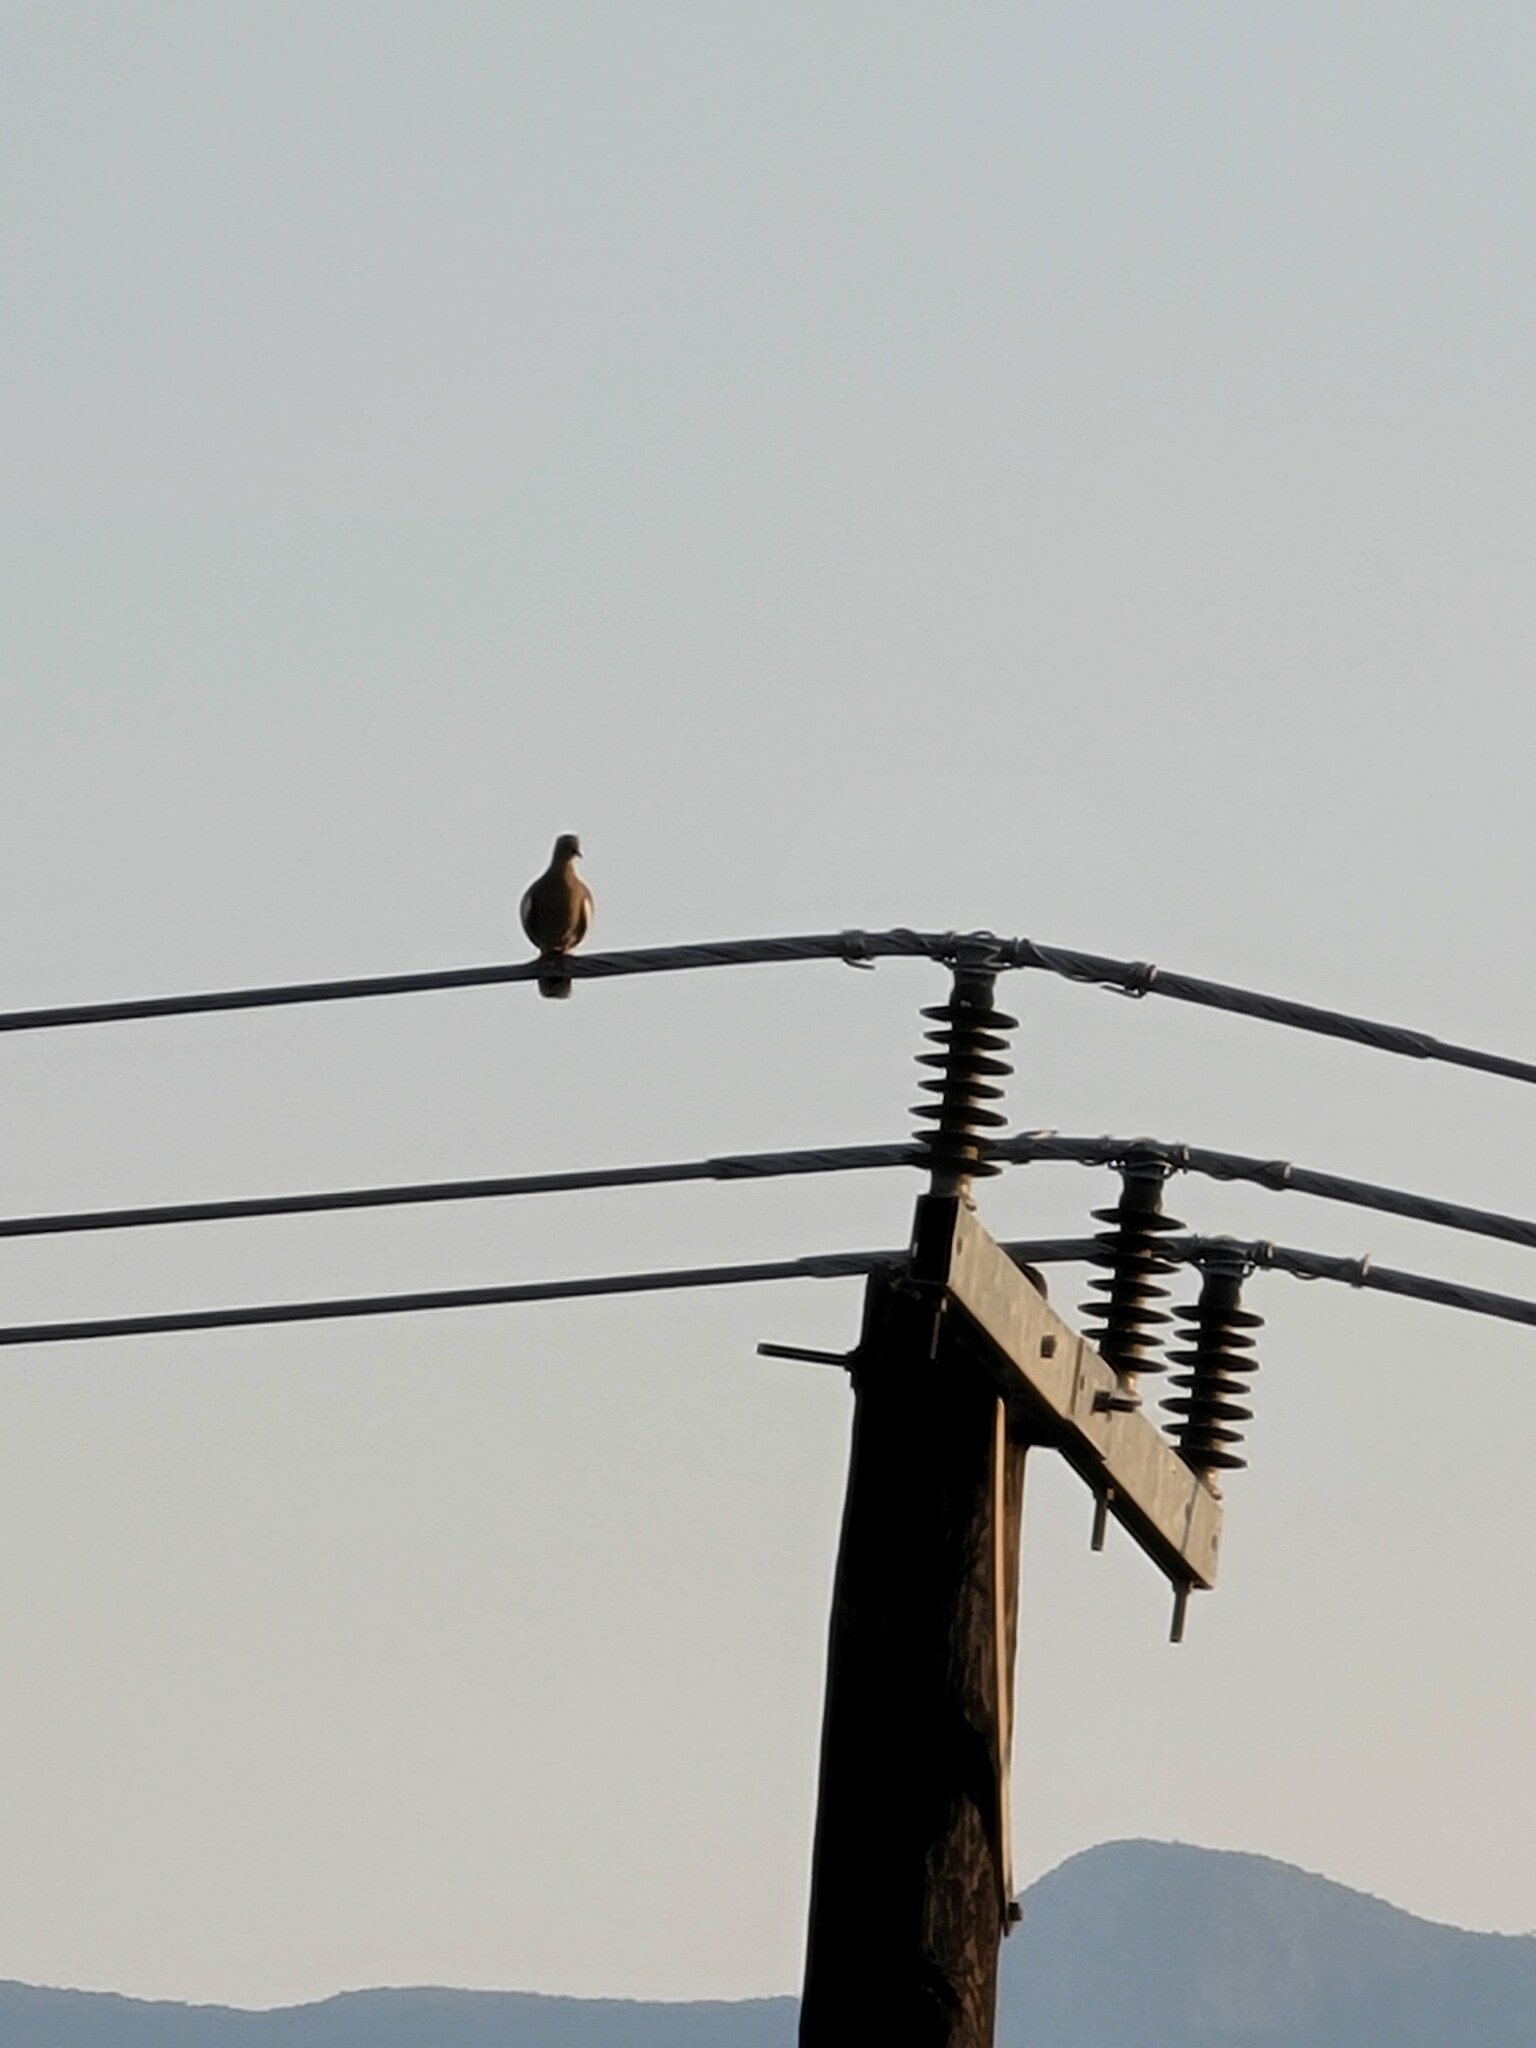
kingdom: Animalia
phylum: Chordata
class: Aves
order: Columbiformes
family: Columbidae
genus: Zenaida
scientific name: Zenaida asiatica
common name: White-winged dove
